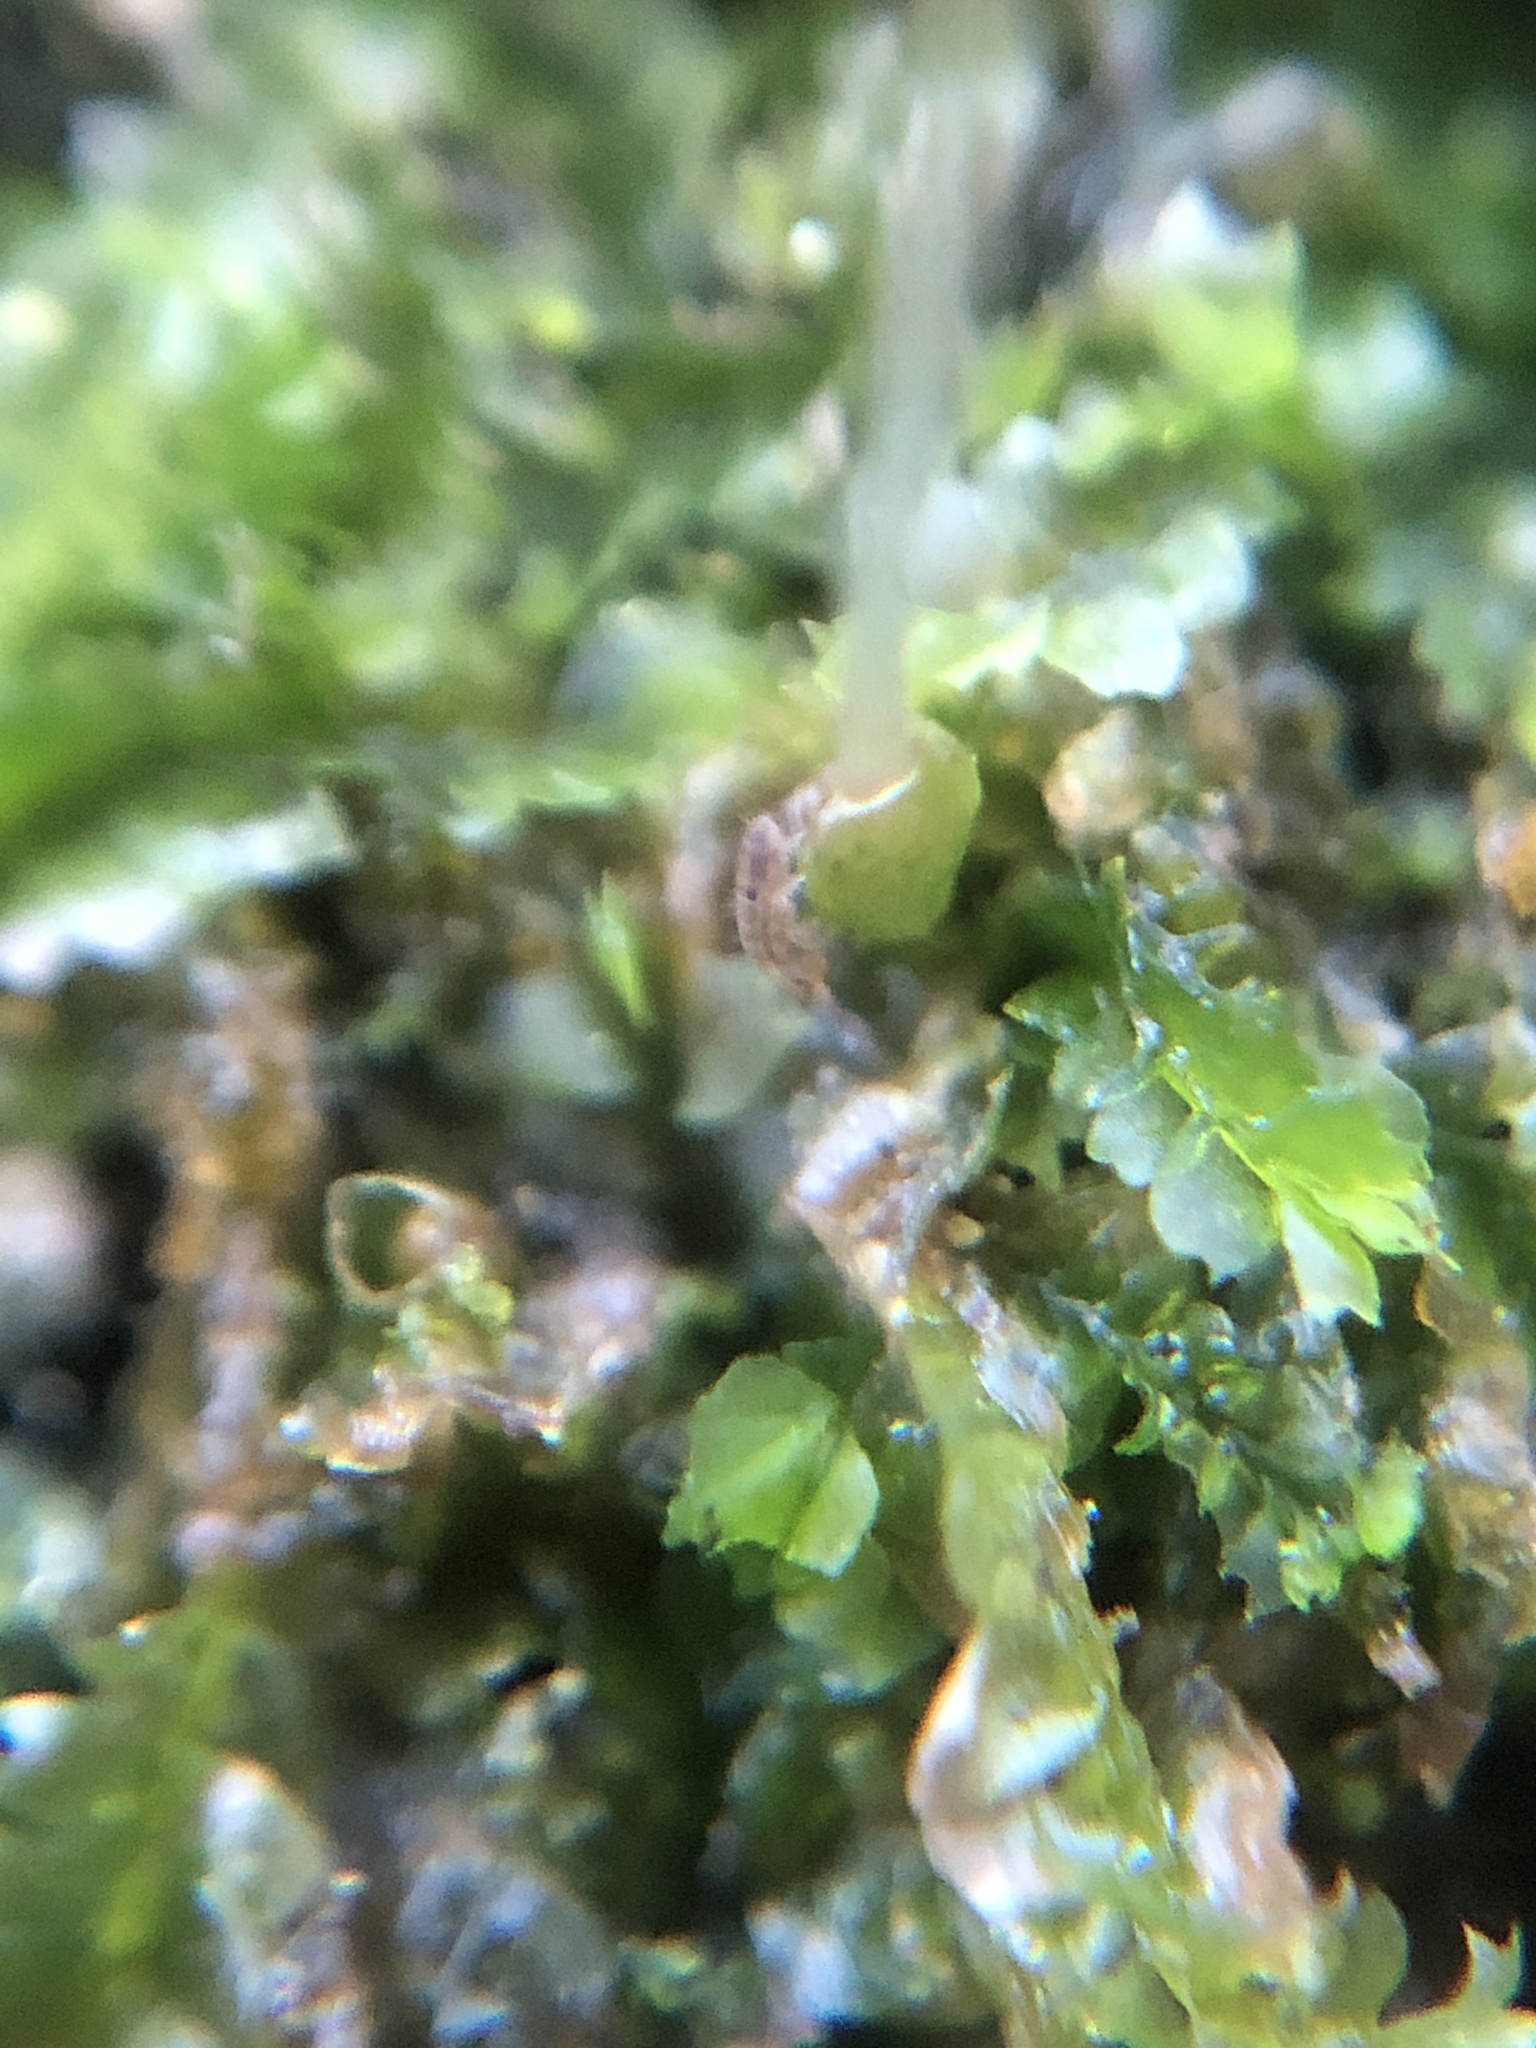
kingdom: Plantae
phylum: Marchantiophyta
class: Jungermanniopsida
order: Jungermanniales
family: Lophocoleaceae
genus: Lophocolea
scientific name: Lophocolea heterophylla
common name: Variable-leaved crestwort
